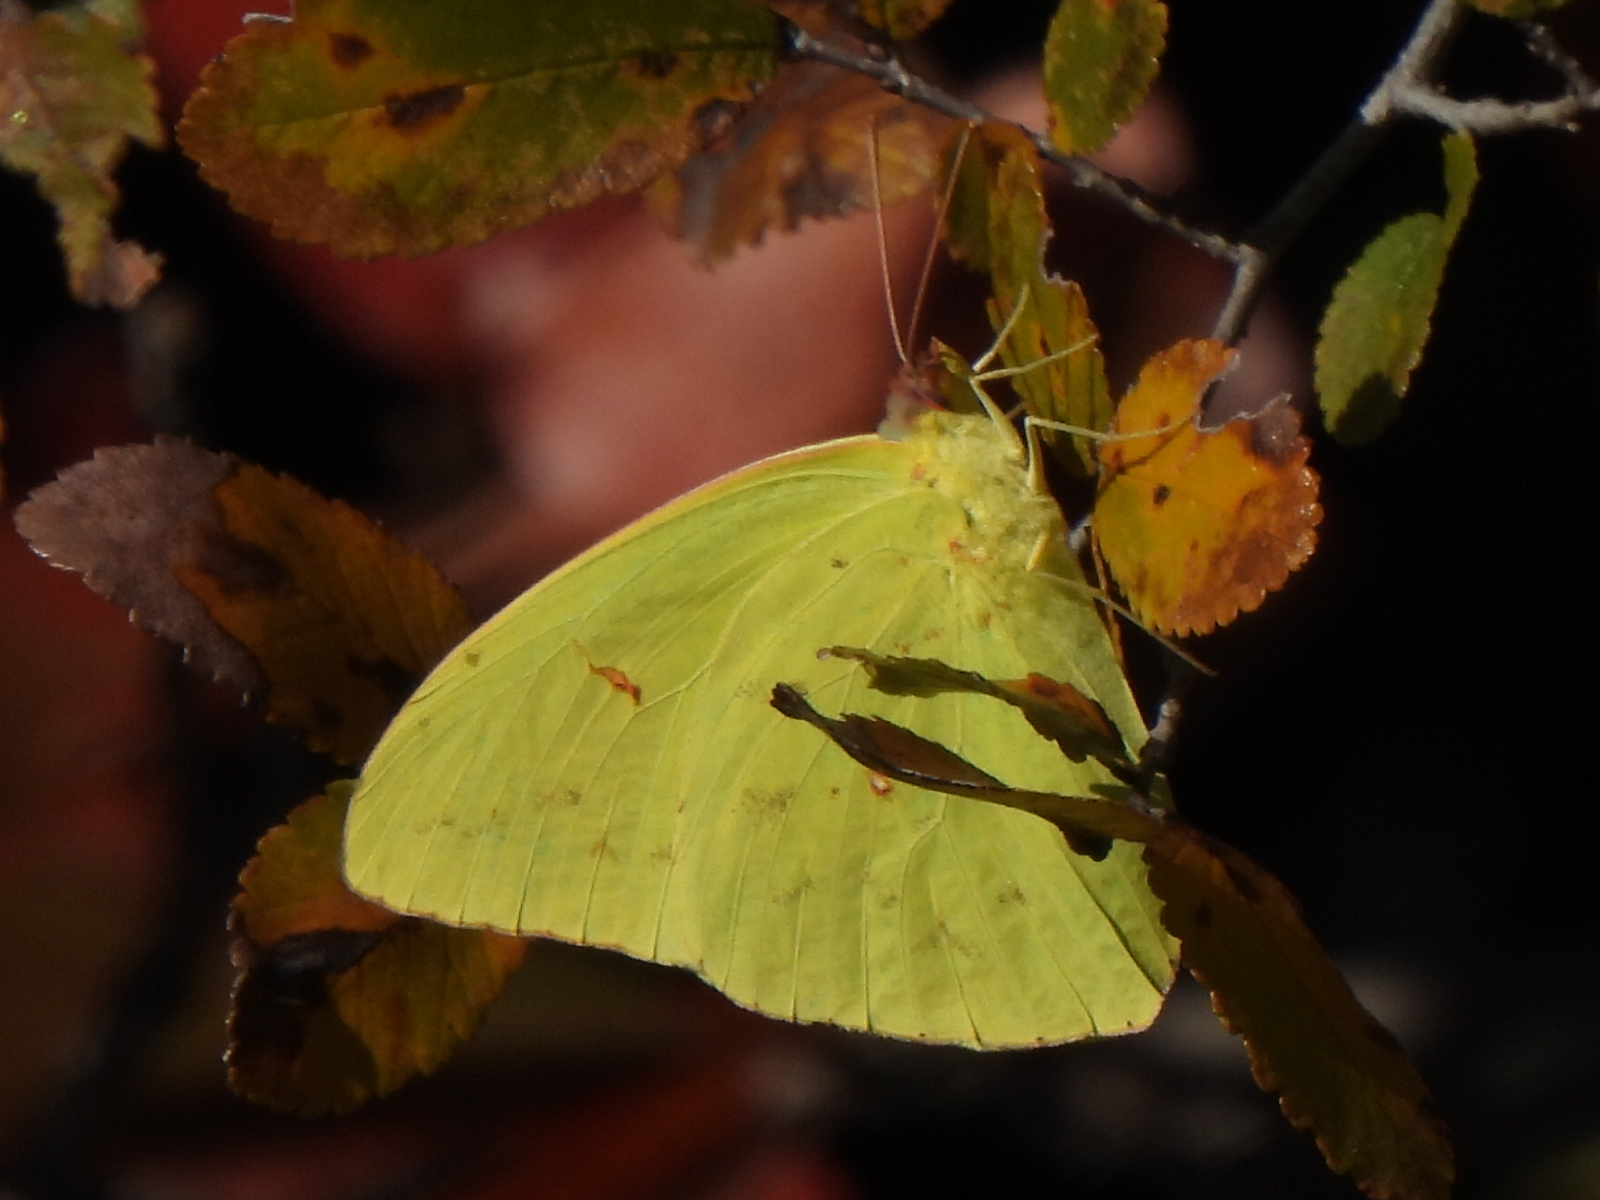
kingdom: Animalia
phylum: Arthropoda
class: Insecta
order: Lepidoptera
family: Pieridae
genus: Phoebis
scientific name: Phoebis sennae
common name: Cloudless sulphur
